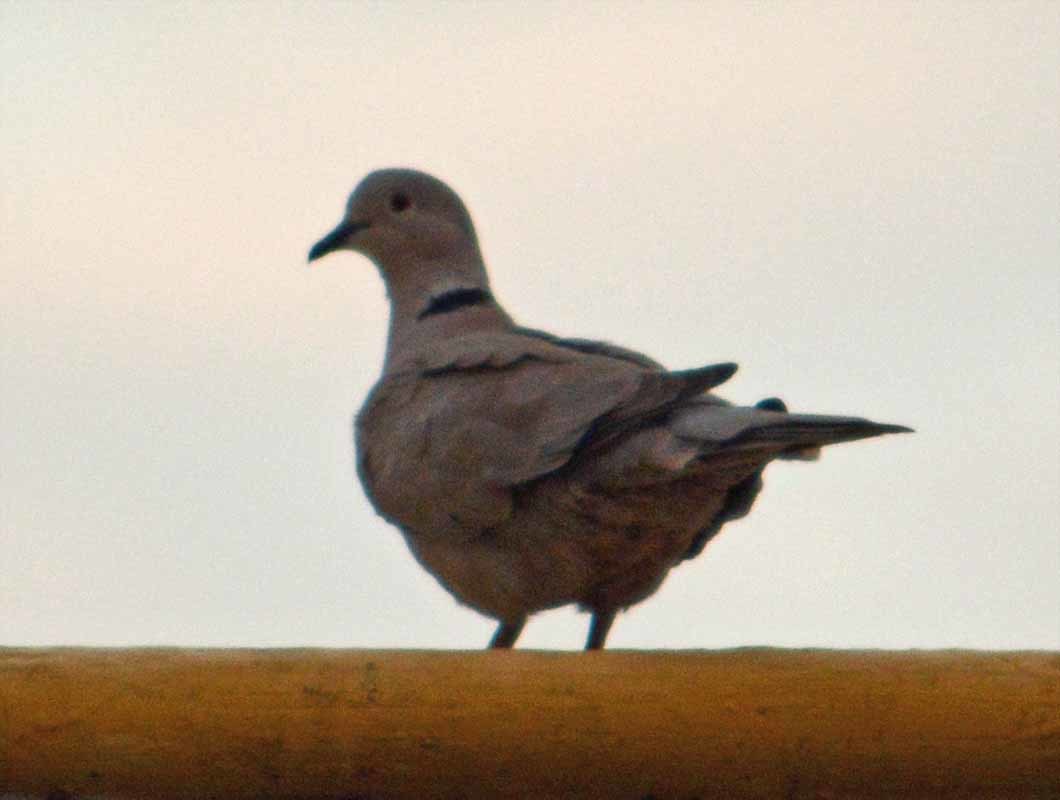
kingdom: Animalia
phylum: Chordata
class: Aves
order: Columbiformes
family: Columbidae
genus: Streptopelia
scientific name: Streptopelia decaocto
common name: Eurasian collared dove
